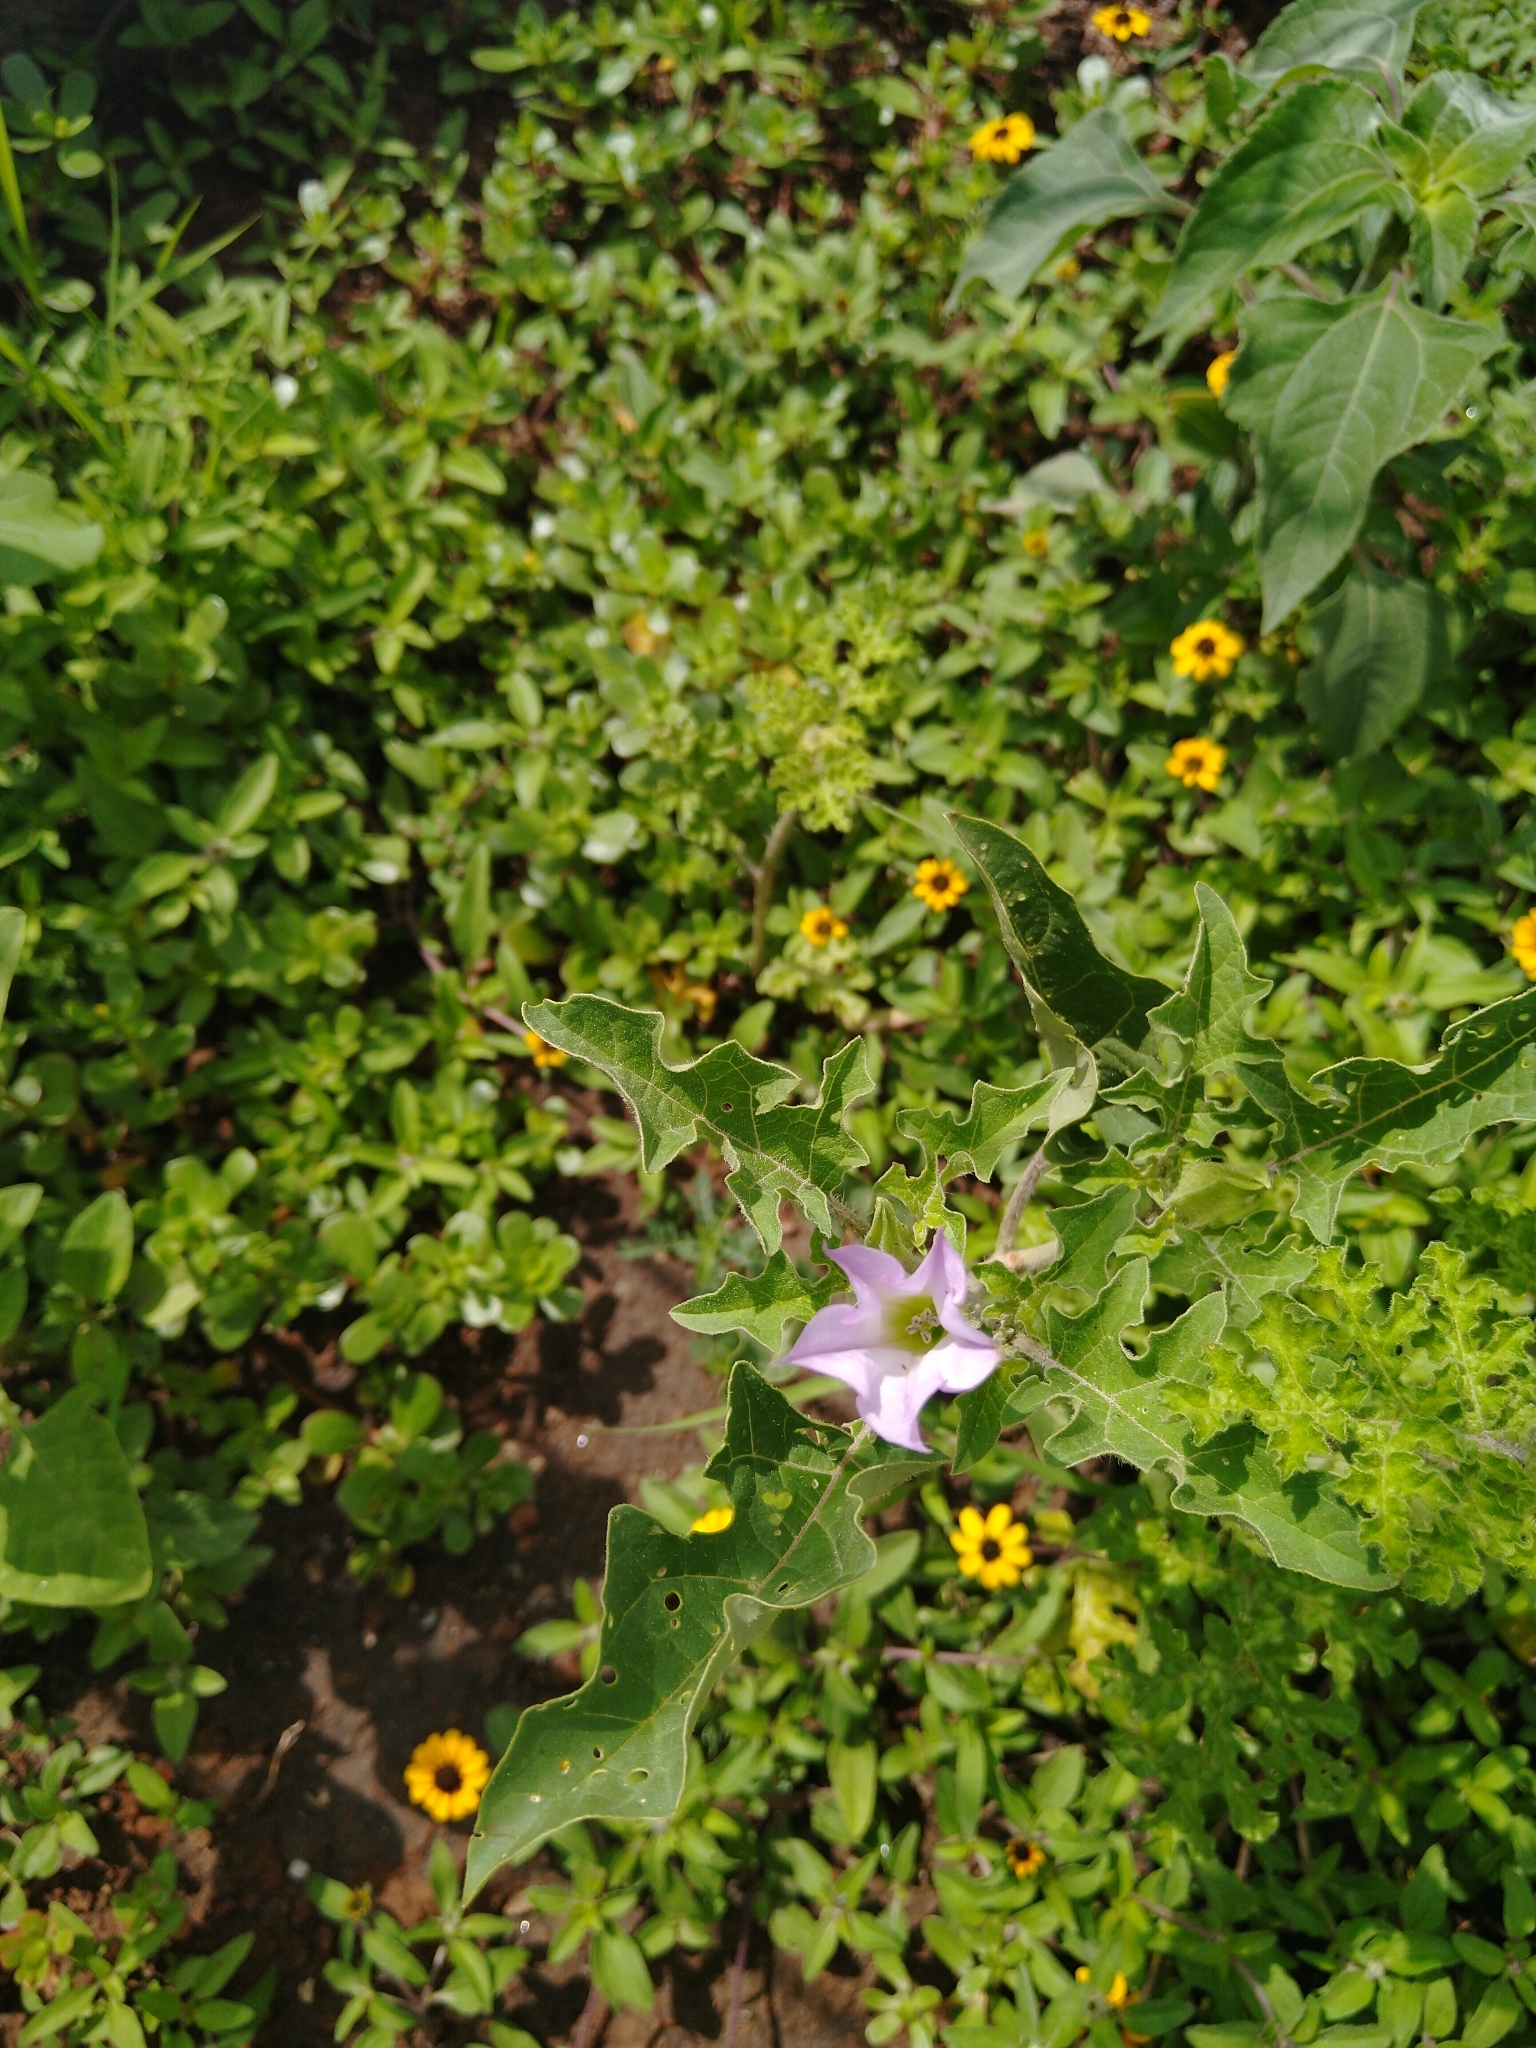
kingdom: Plantae
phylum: Tracheophyta
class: Magnoliopsida
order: Solanales
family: Solanaceae
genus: Datura
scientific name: Datura quercifolia
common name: Oak-leaf datura
